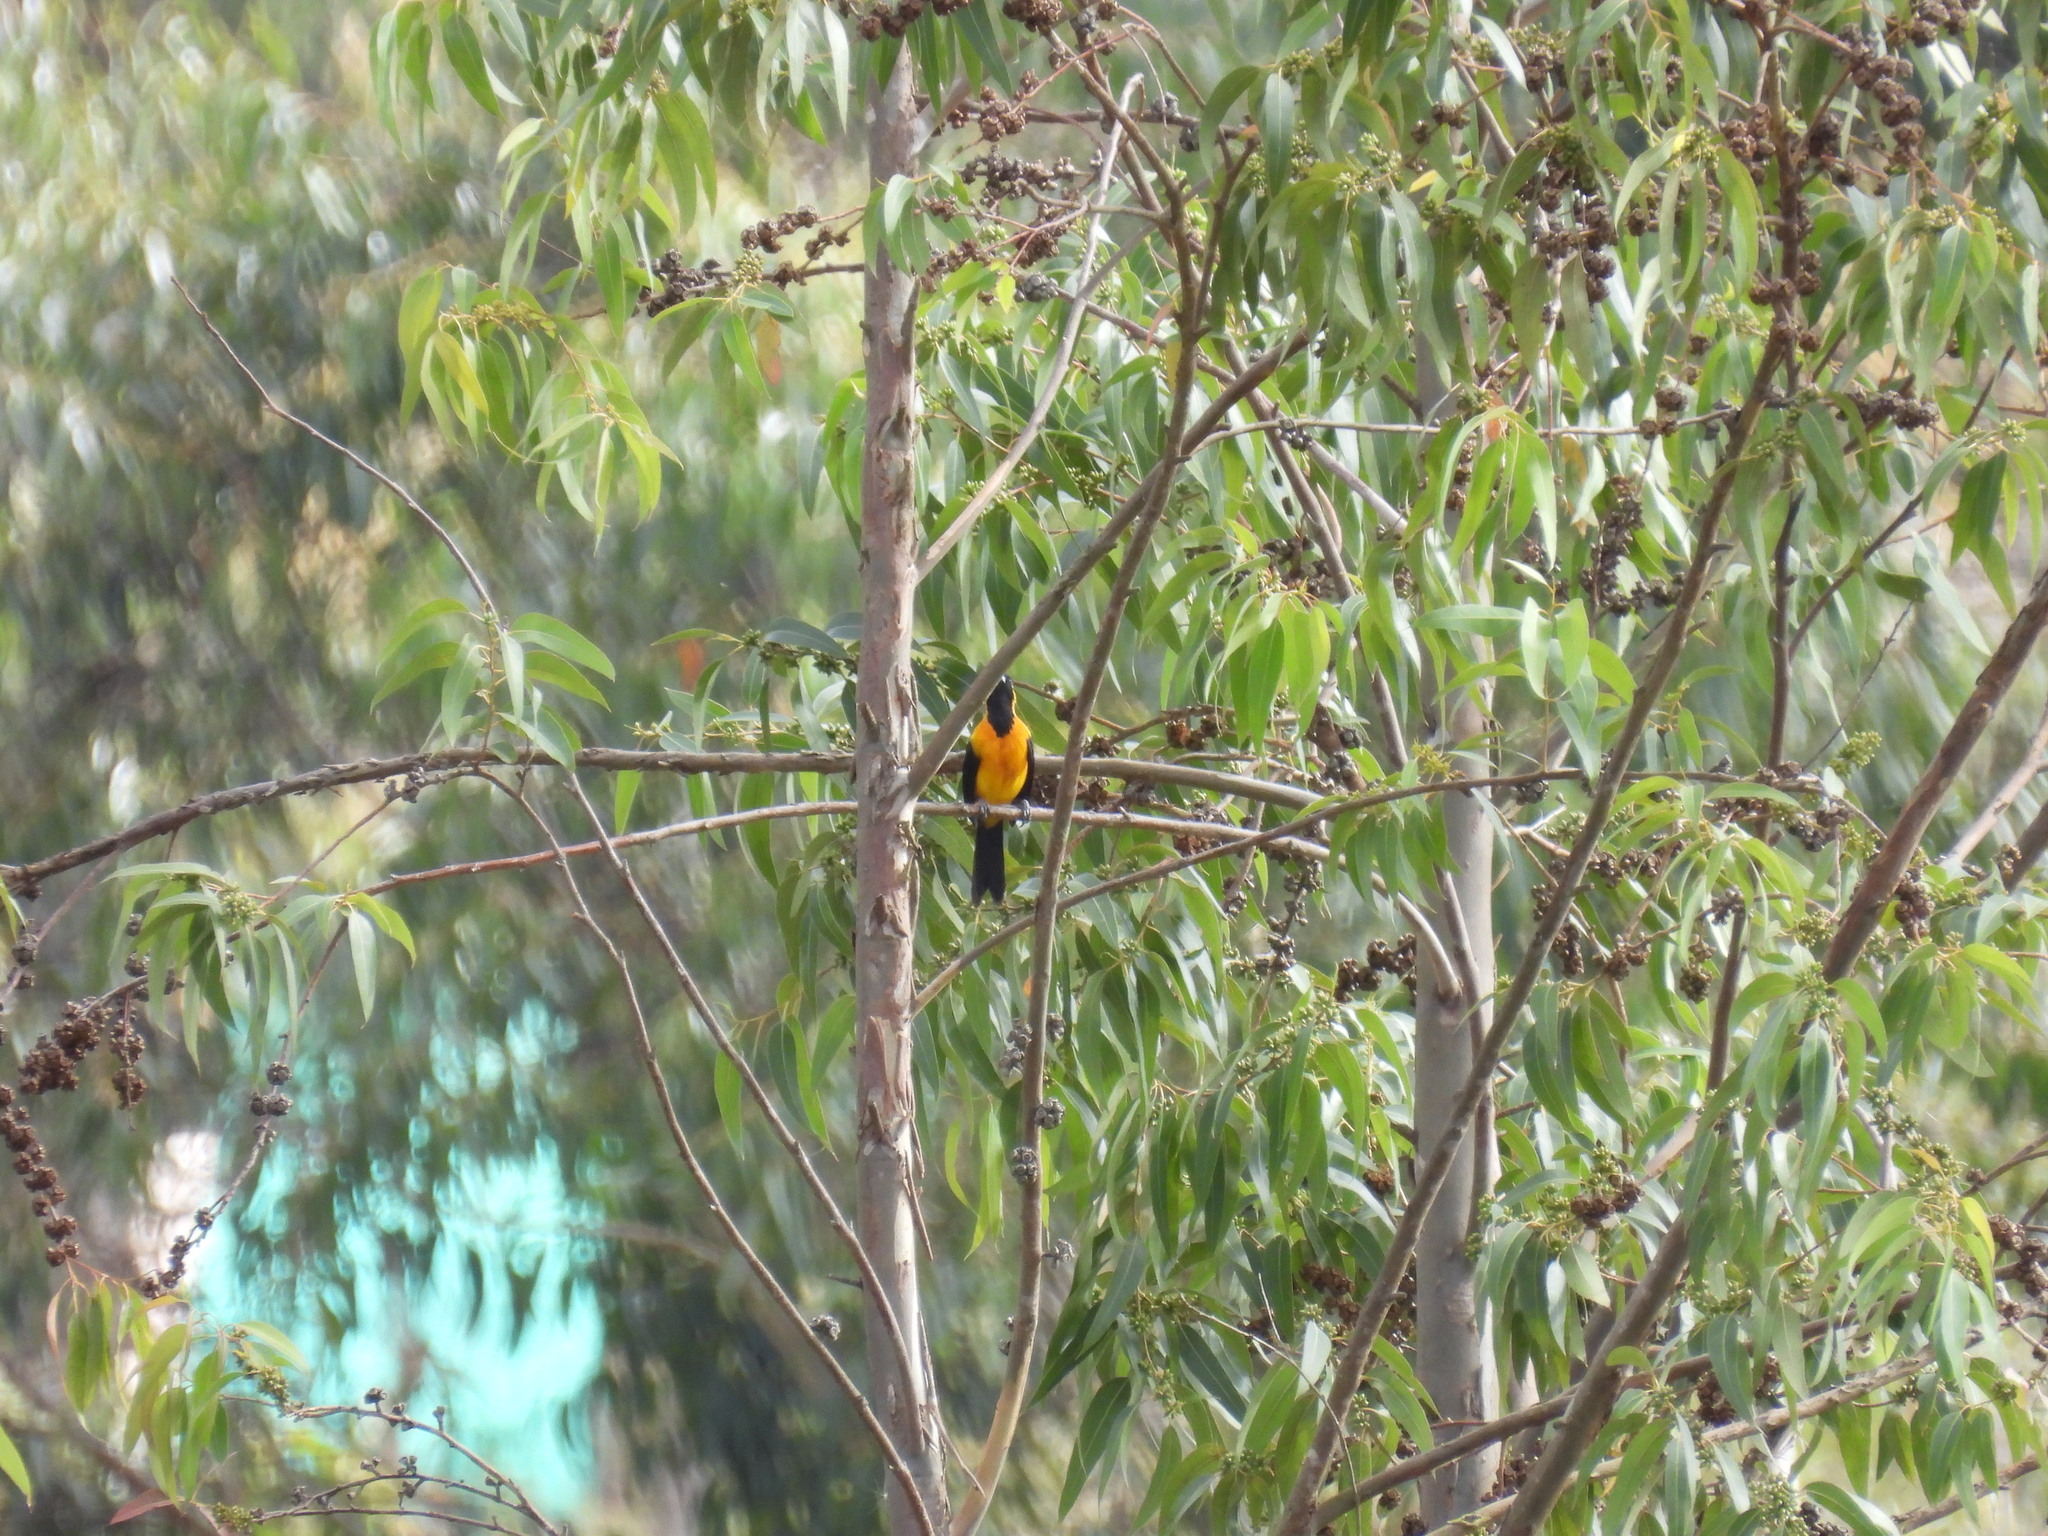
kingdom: Animalia
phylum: Chordata
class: Aves
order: Passeriformes
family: Icteridae
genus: Icterus
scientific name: Icterus chrysater
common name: Yellow-backed oriole
